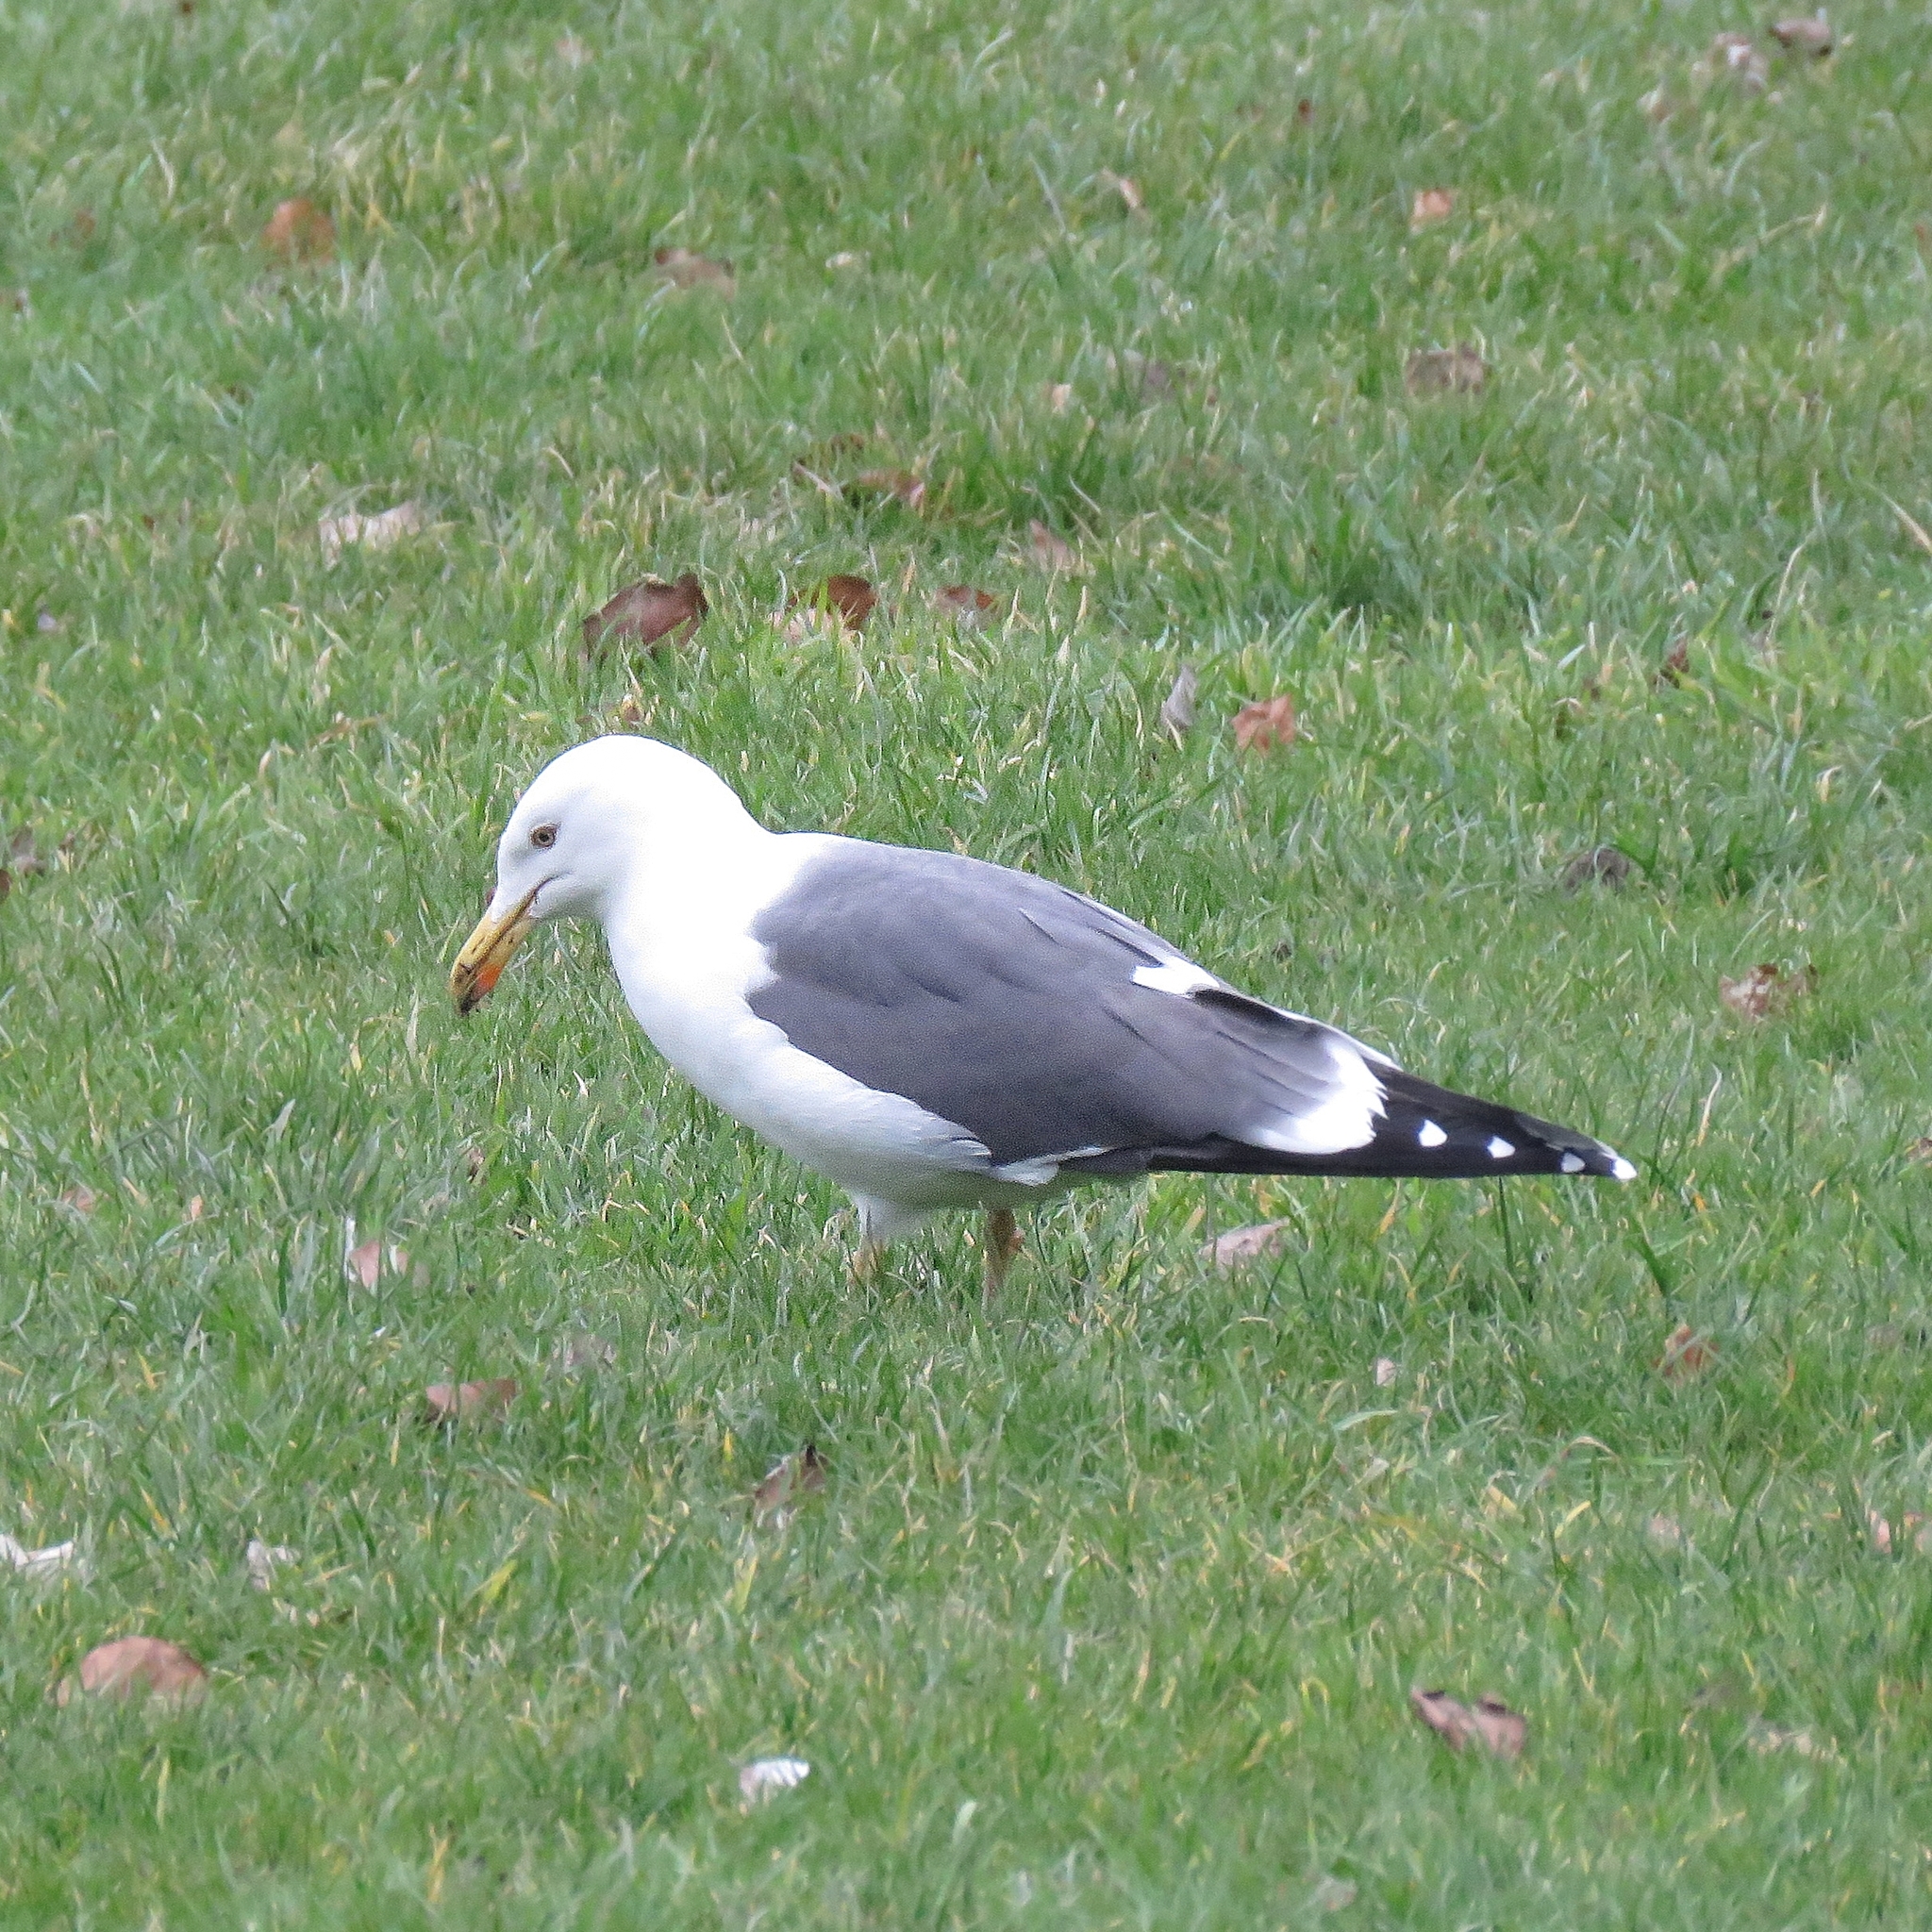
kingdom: Animalia
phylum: Chordata
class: Aves
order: Charadriiformes
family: Laridae
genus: Larus
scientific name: Larus fuscus
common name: Lesser black-backed gull
